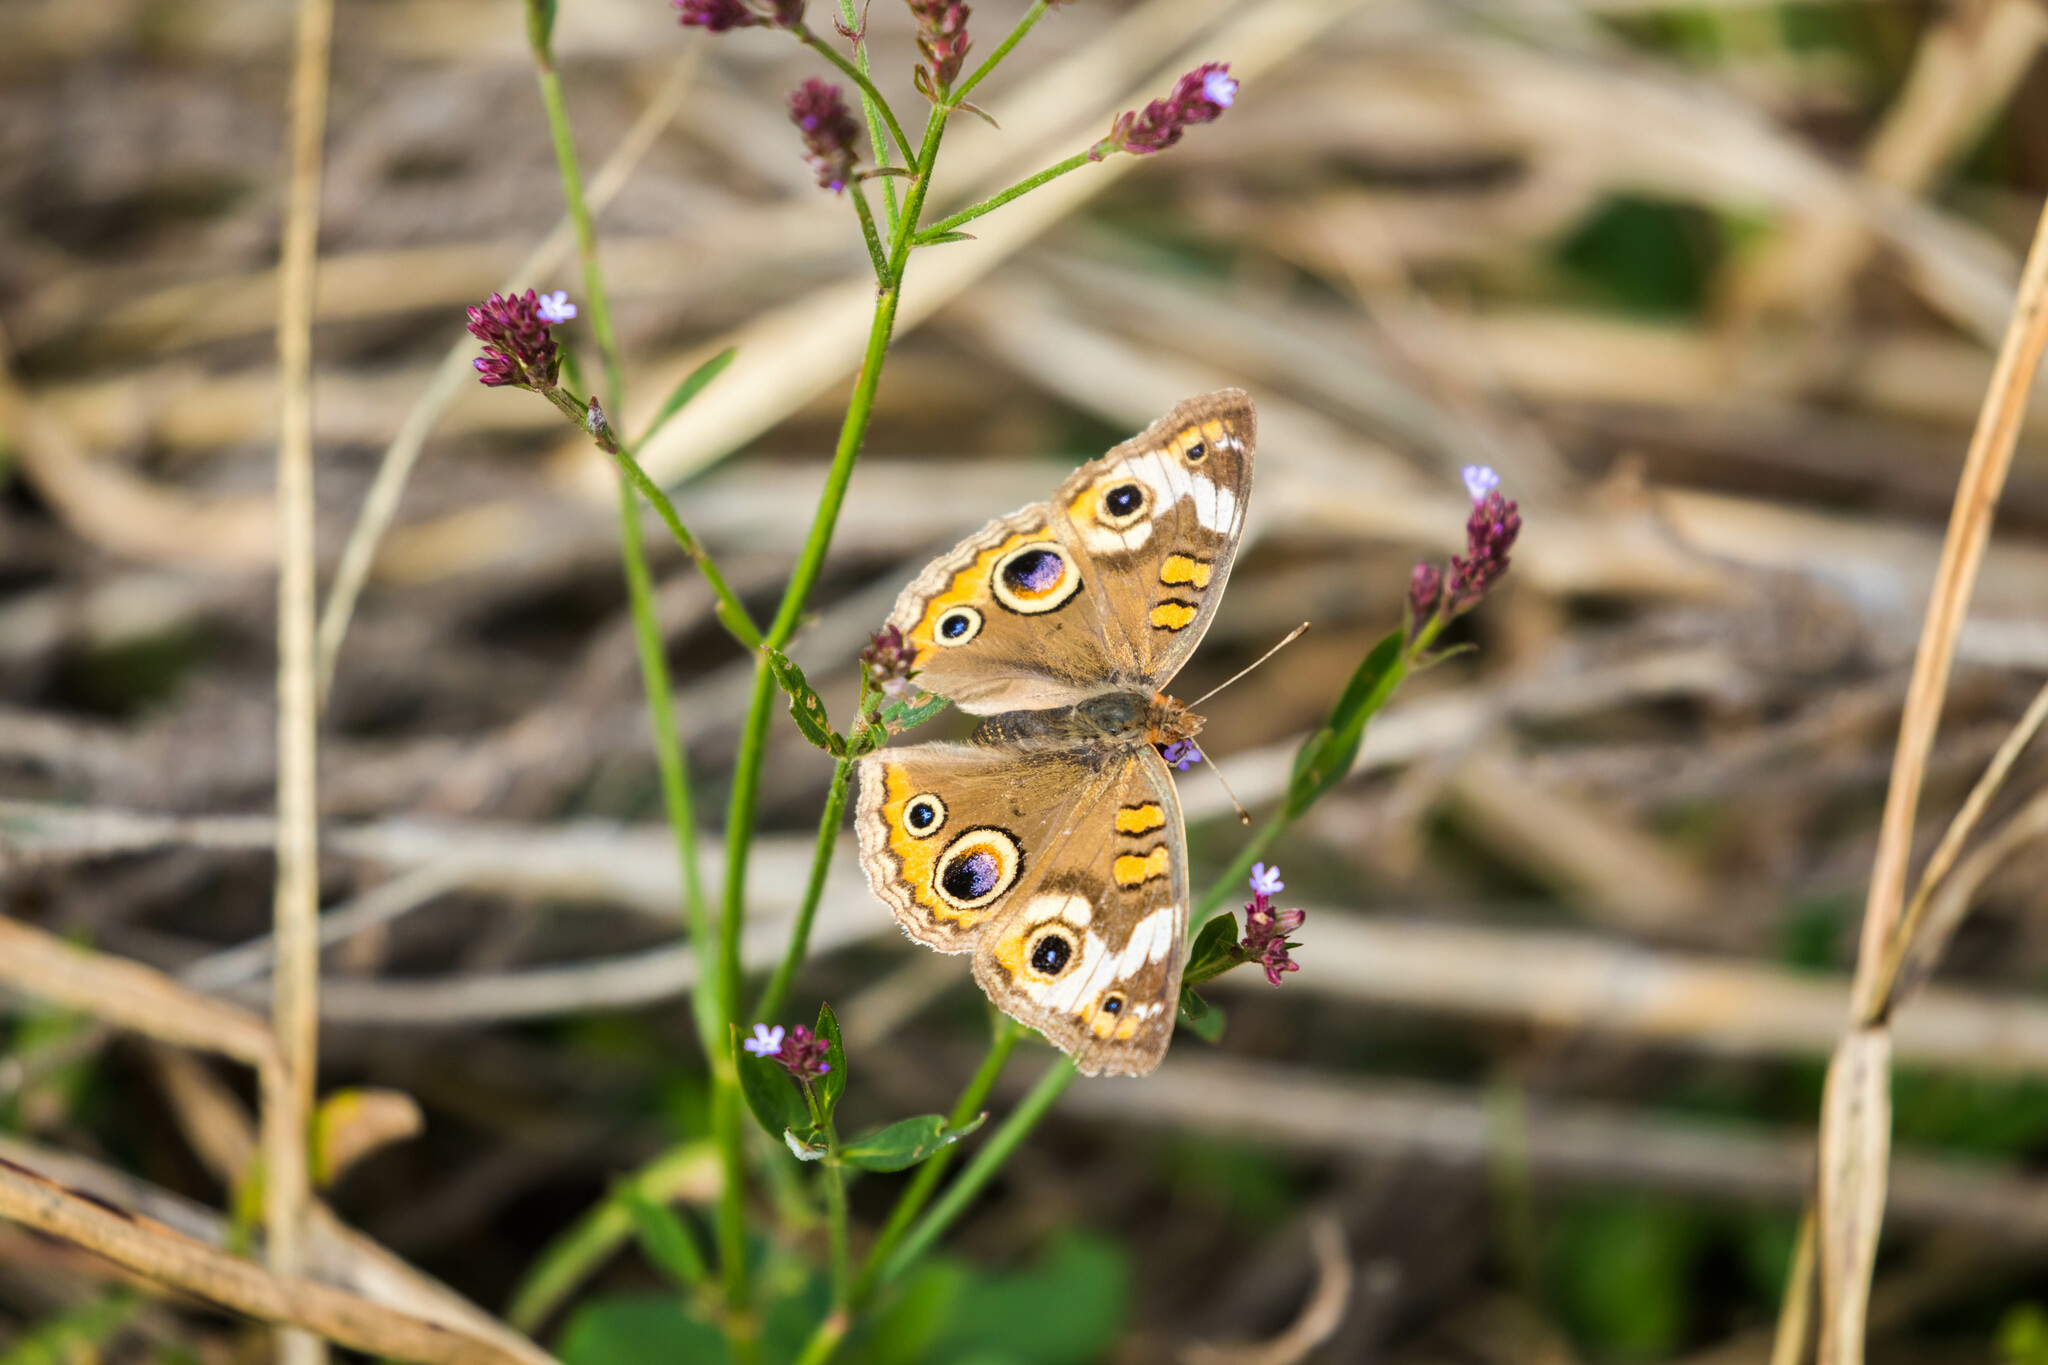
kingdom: Animalia
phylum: Arthropoda
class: Insecta
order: Lepidoptera
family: Nymphalidae
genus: Junonia
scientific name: Junonia coenia
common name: Common buckeye
